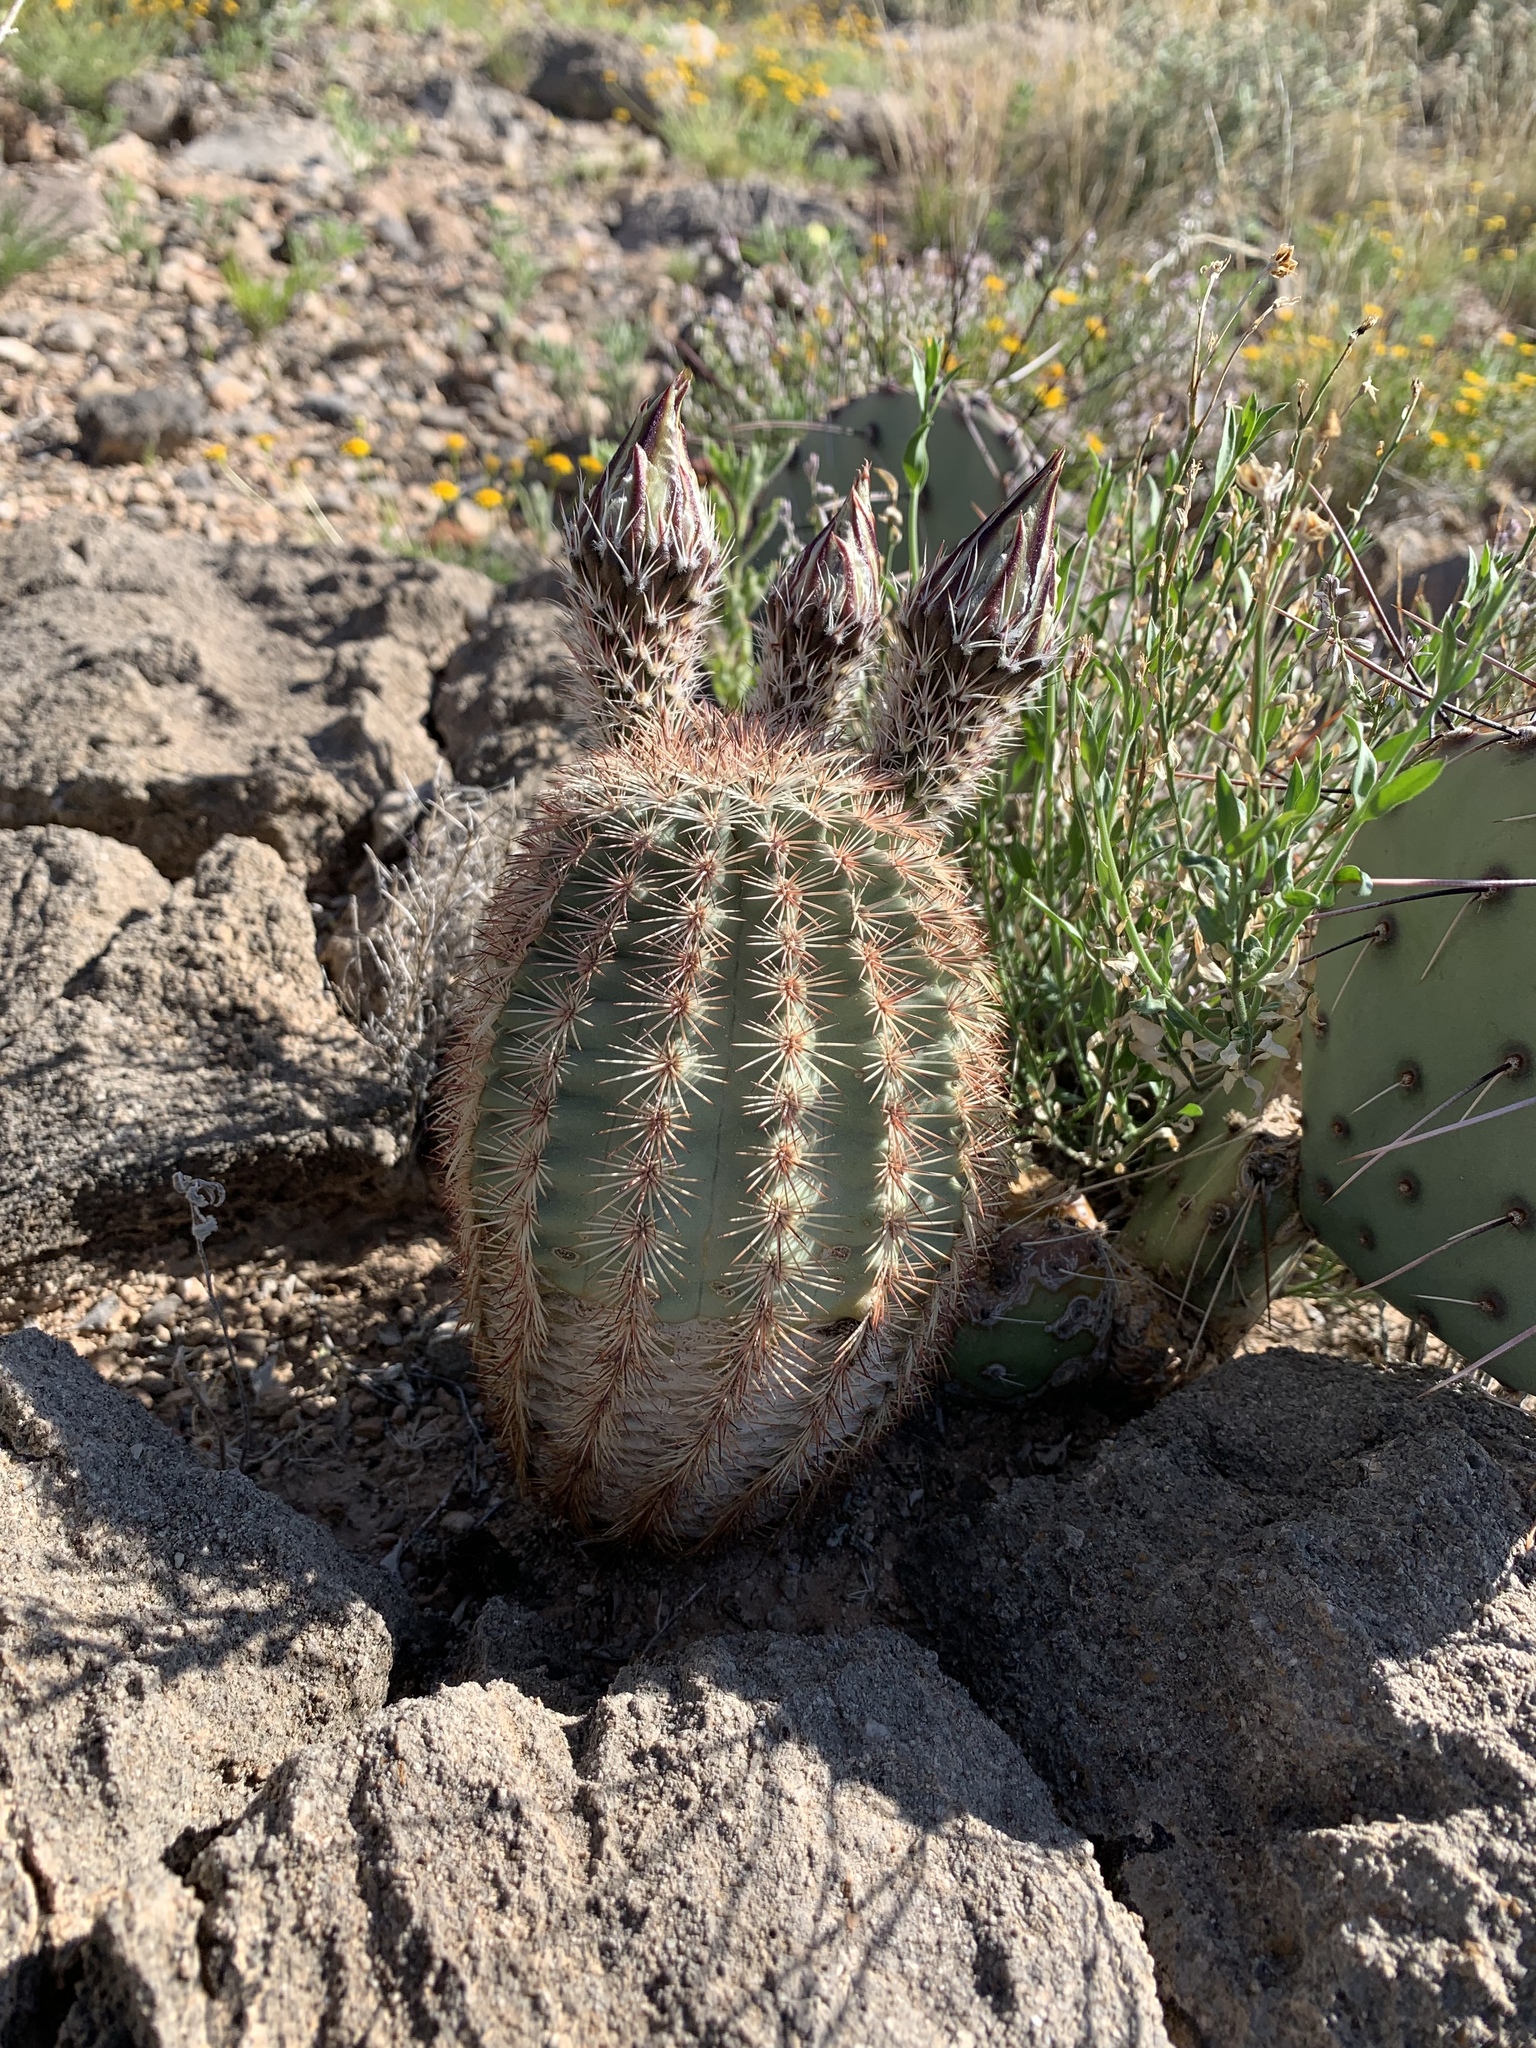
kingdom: Plantae
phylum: Tracheophyta
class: Magnoliopsida
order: Caryophyllales
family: Cactaceae
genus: Echinocereus
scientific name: Echinocereus dasyacanthus
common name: Spiny hedgehog cactus
